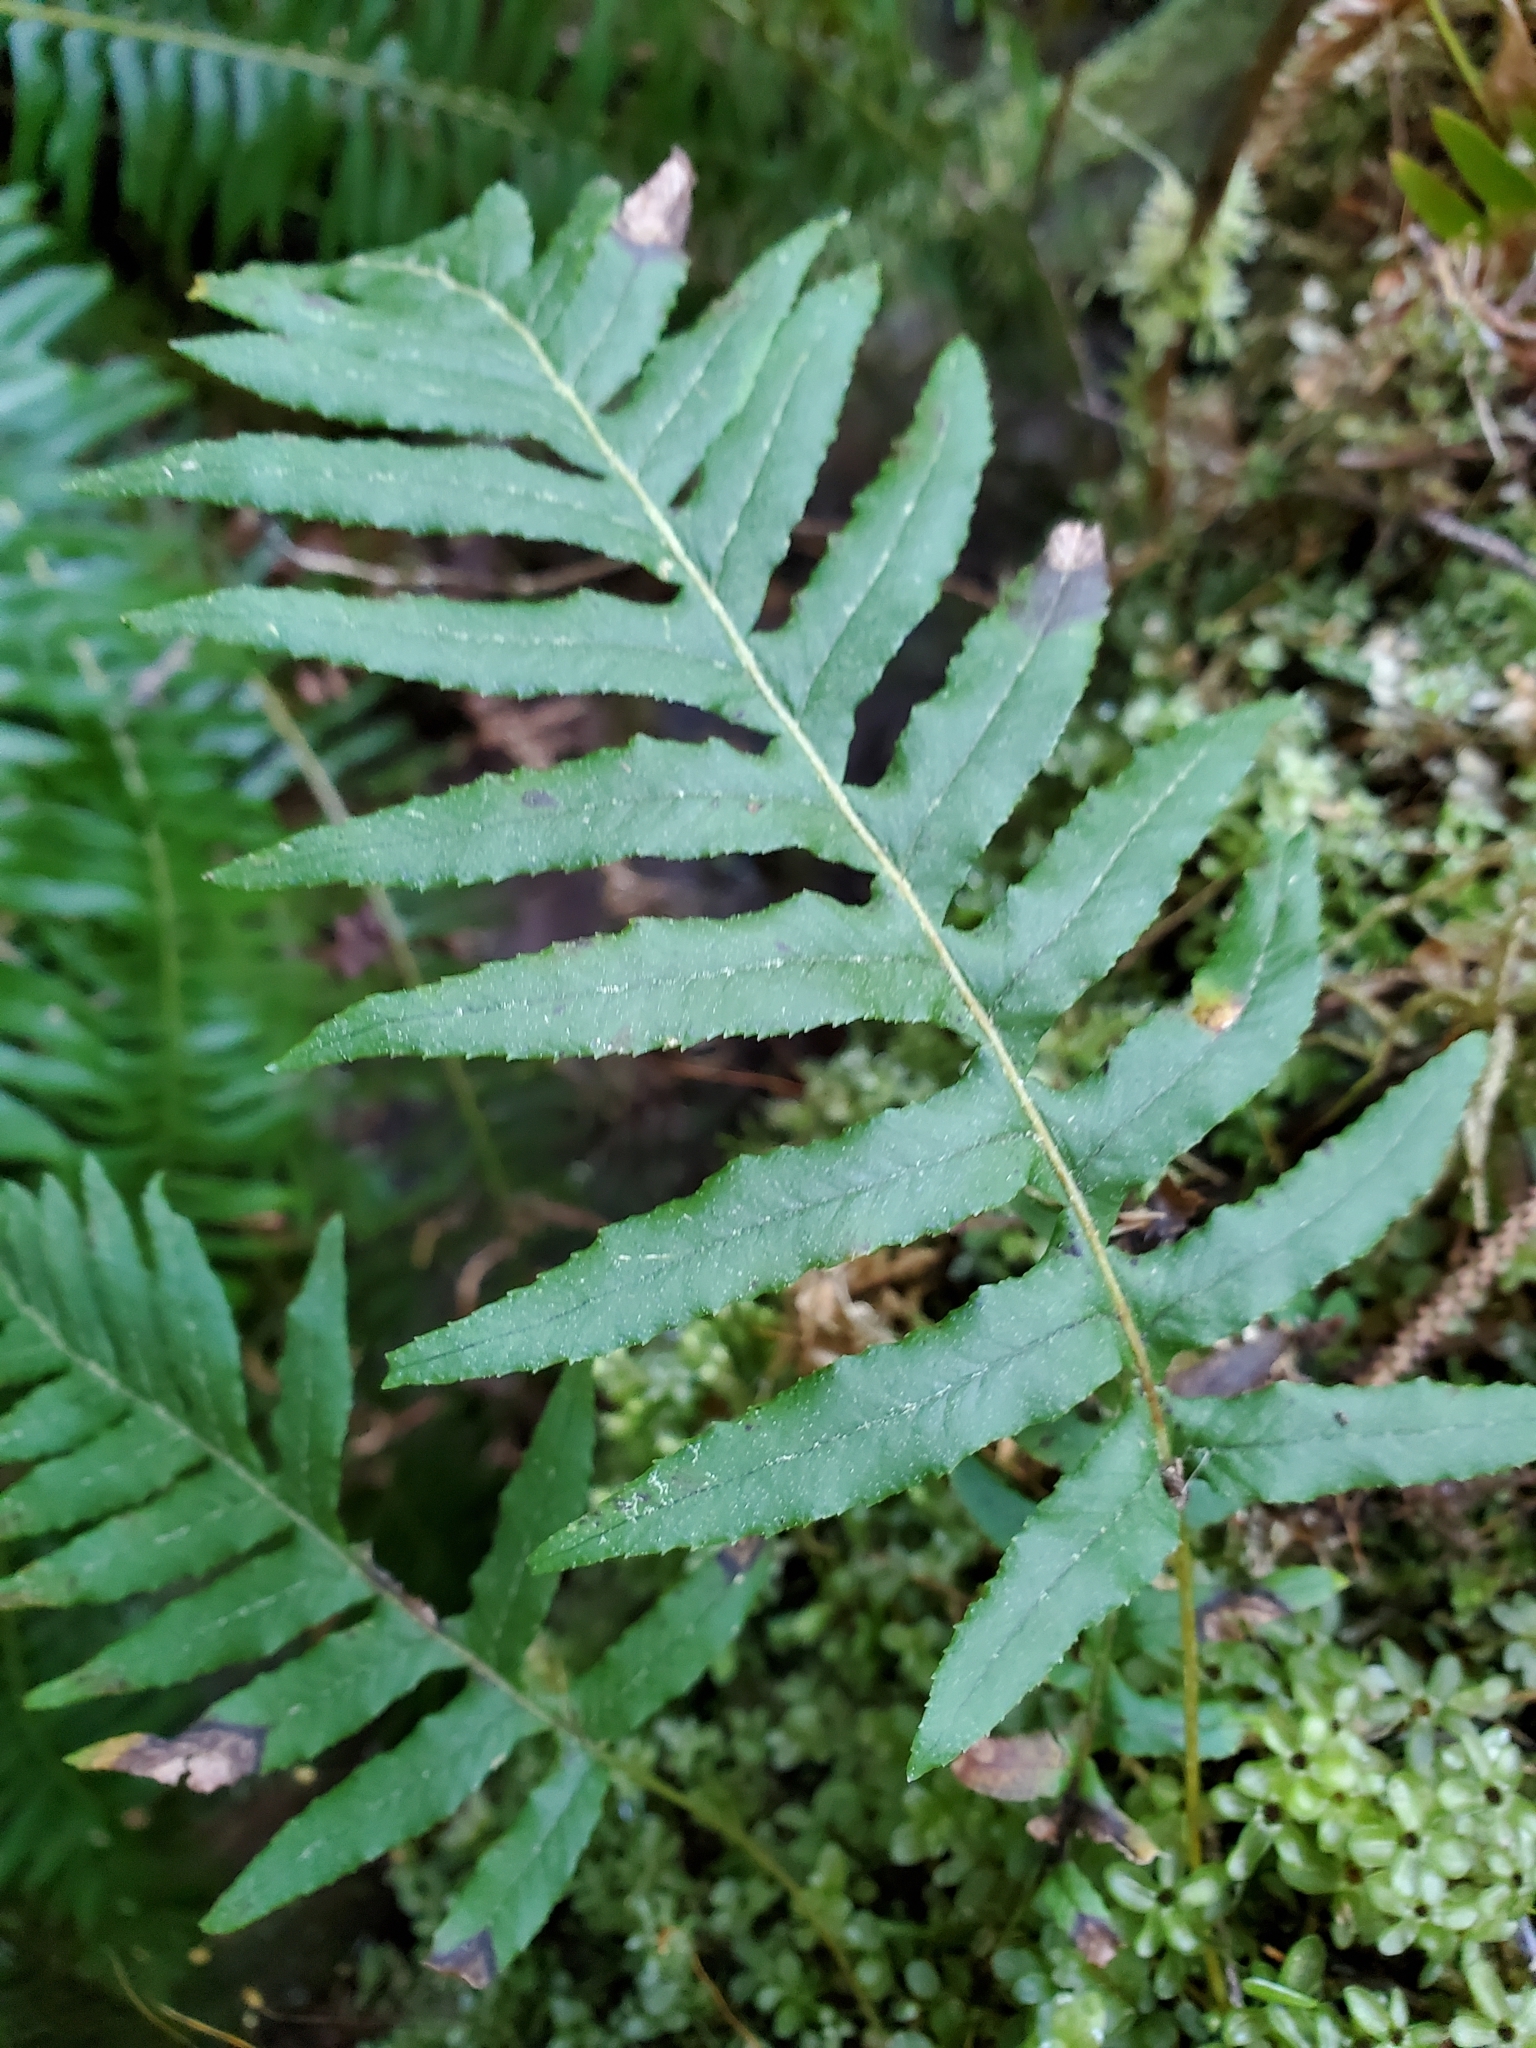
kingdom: Plantae
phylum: Tracheophyta
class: Polypodiopsida
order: Polypodiales
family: Polypodiaceae
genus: Polypodium
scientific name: Polypodium glycyrrhiza
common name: Licorice fern
